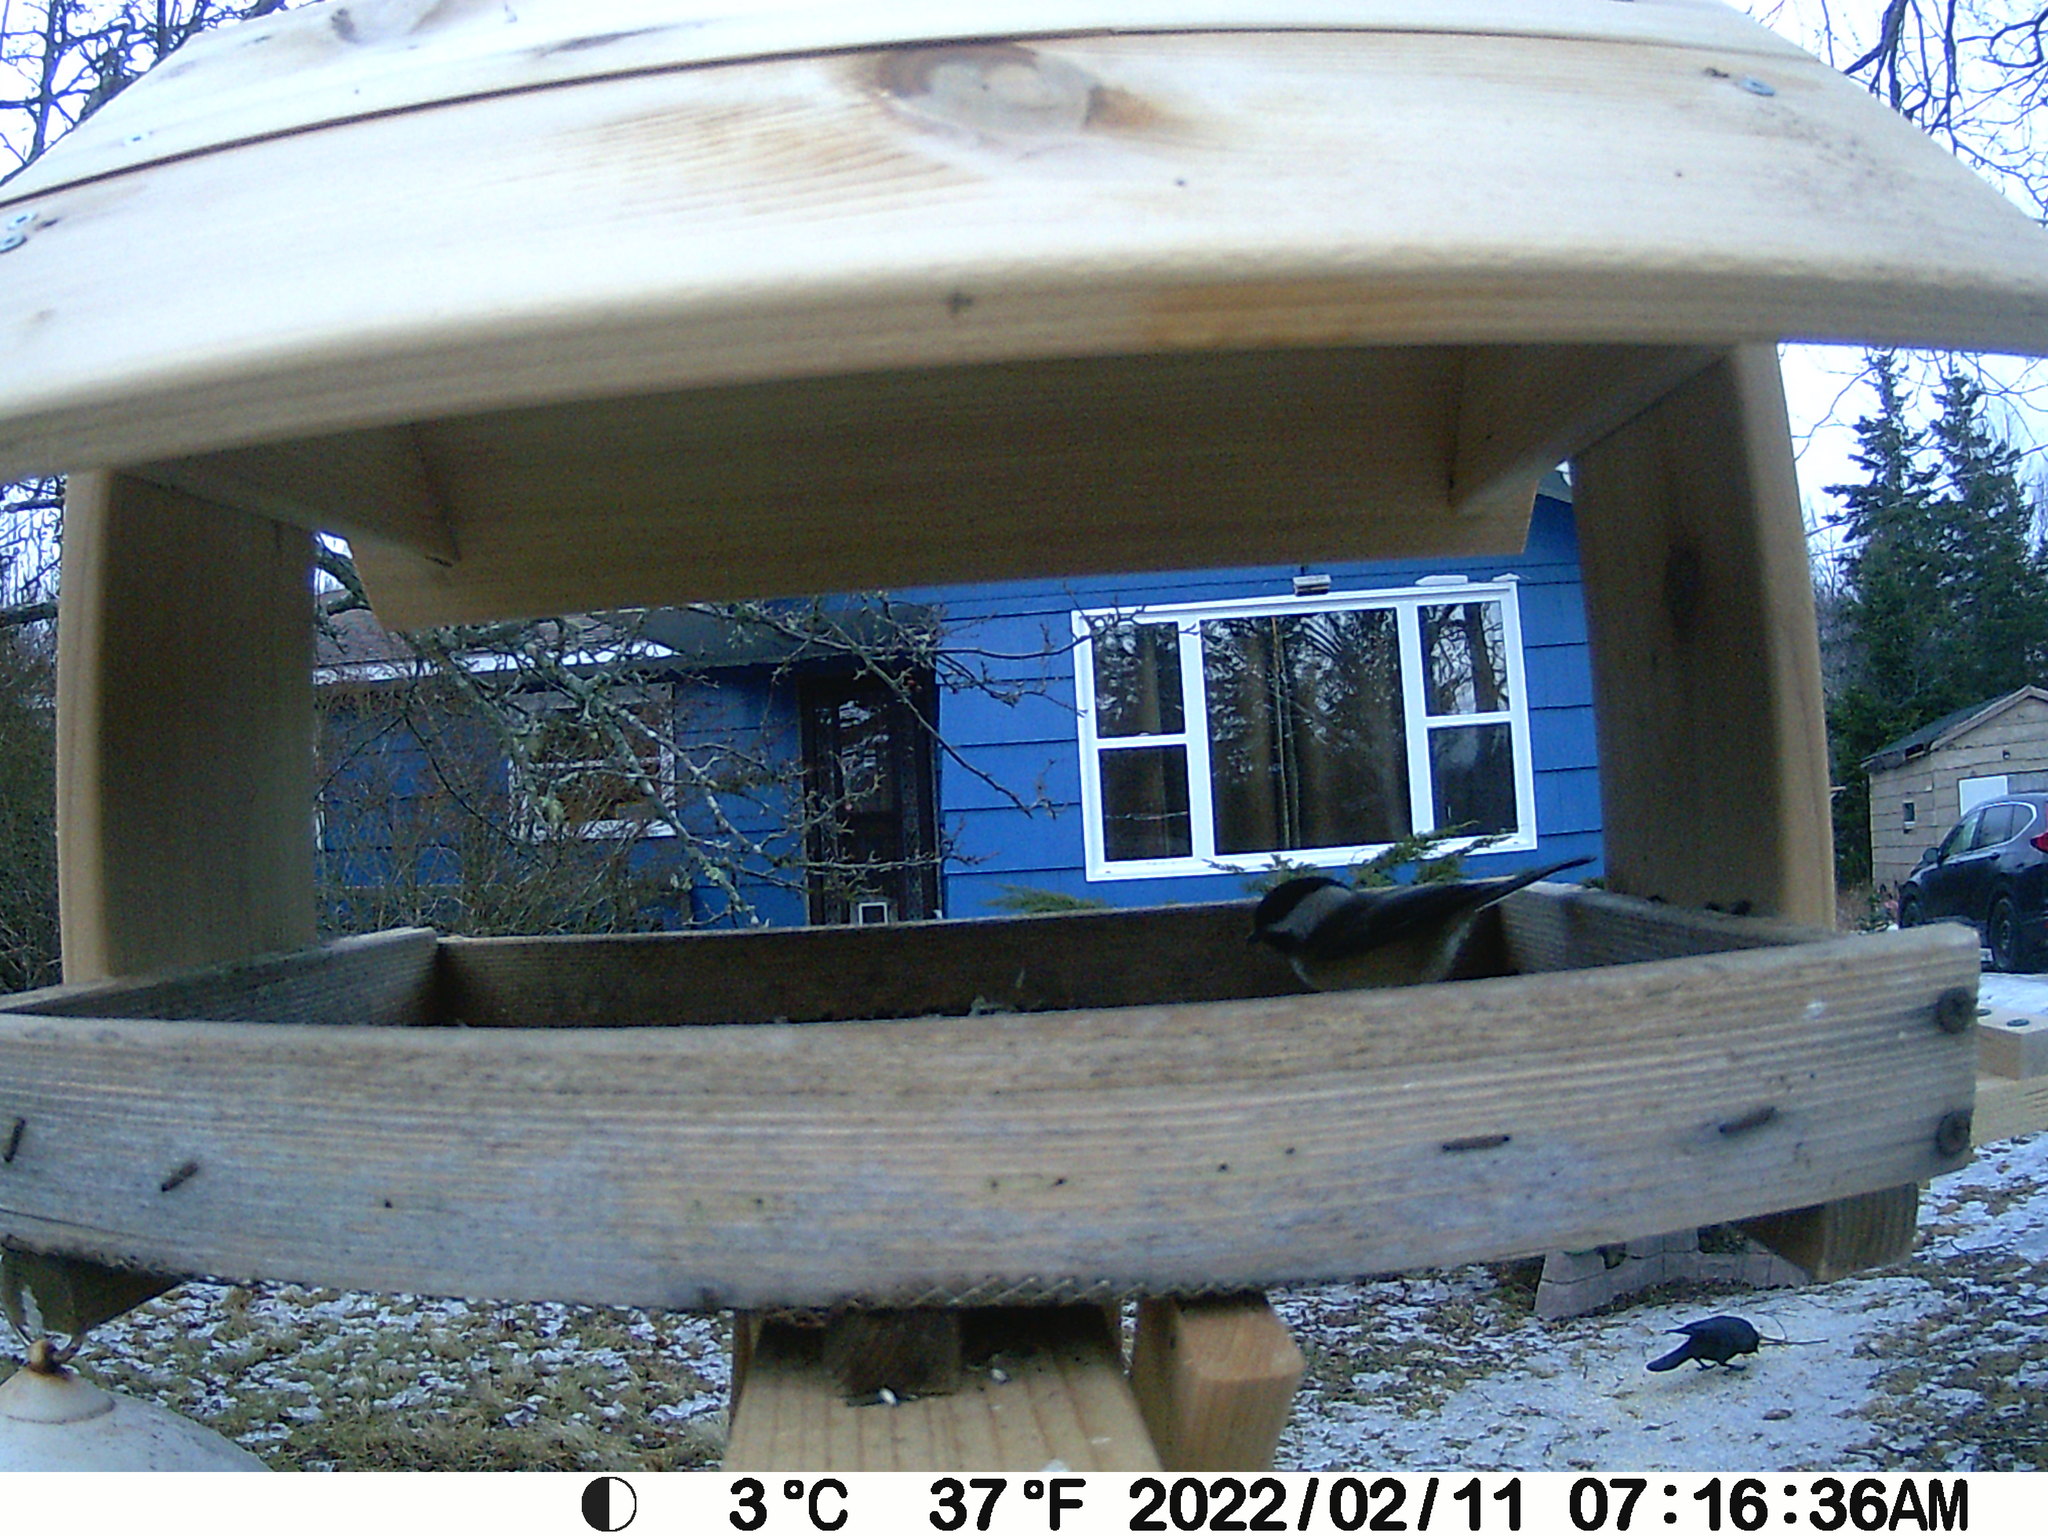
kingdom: Animalia
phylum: Chordata
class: Aves
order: Passeriformes
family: Paridae
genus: Poecile
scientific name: Poecile atricapillus
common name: Black-capped chickadee
